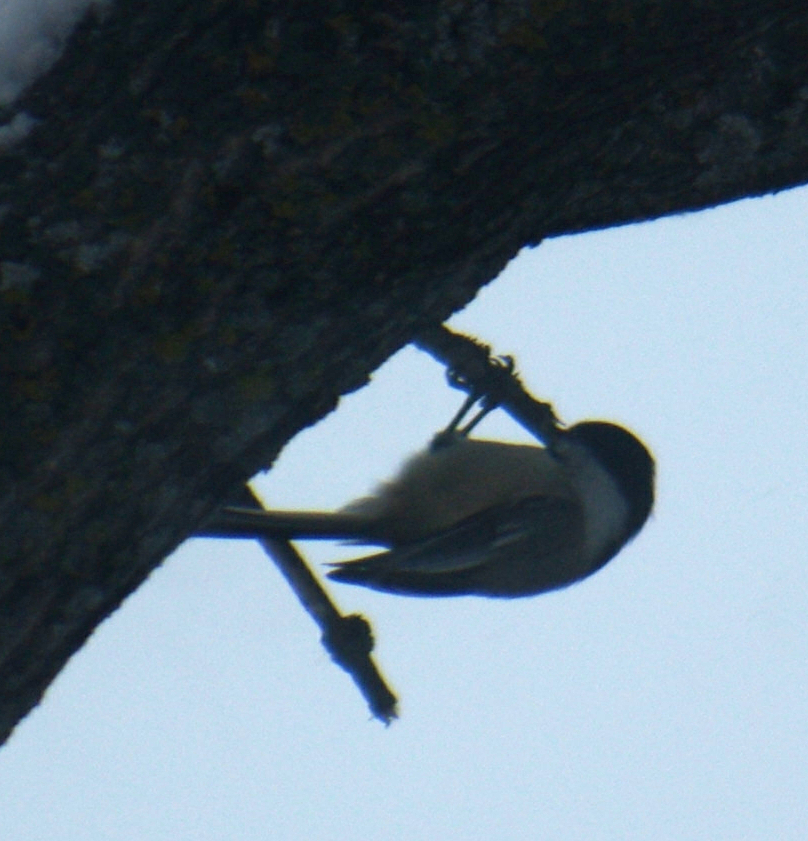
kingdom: Animalia
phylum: Chordata
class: Aves
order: Passeriformes
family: Paridae
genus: Poecile
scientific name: Poecile atricapillus
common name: Black-capped chickadee
